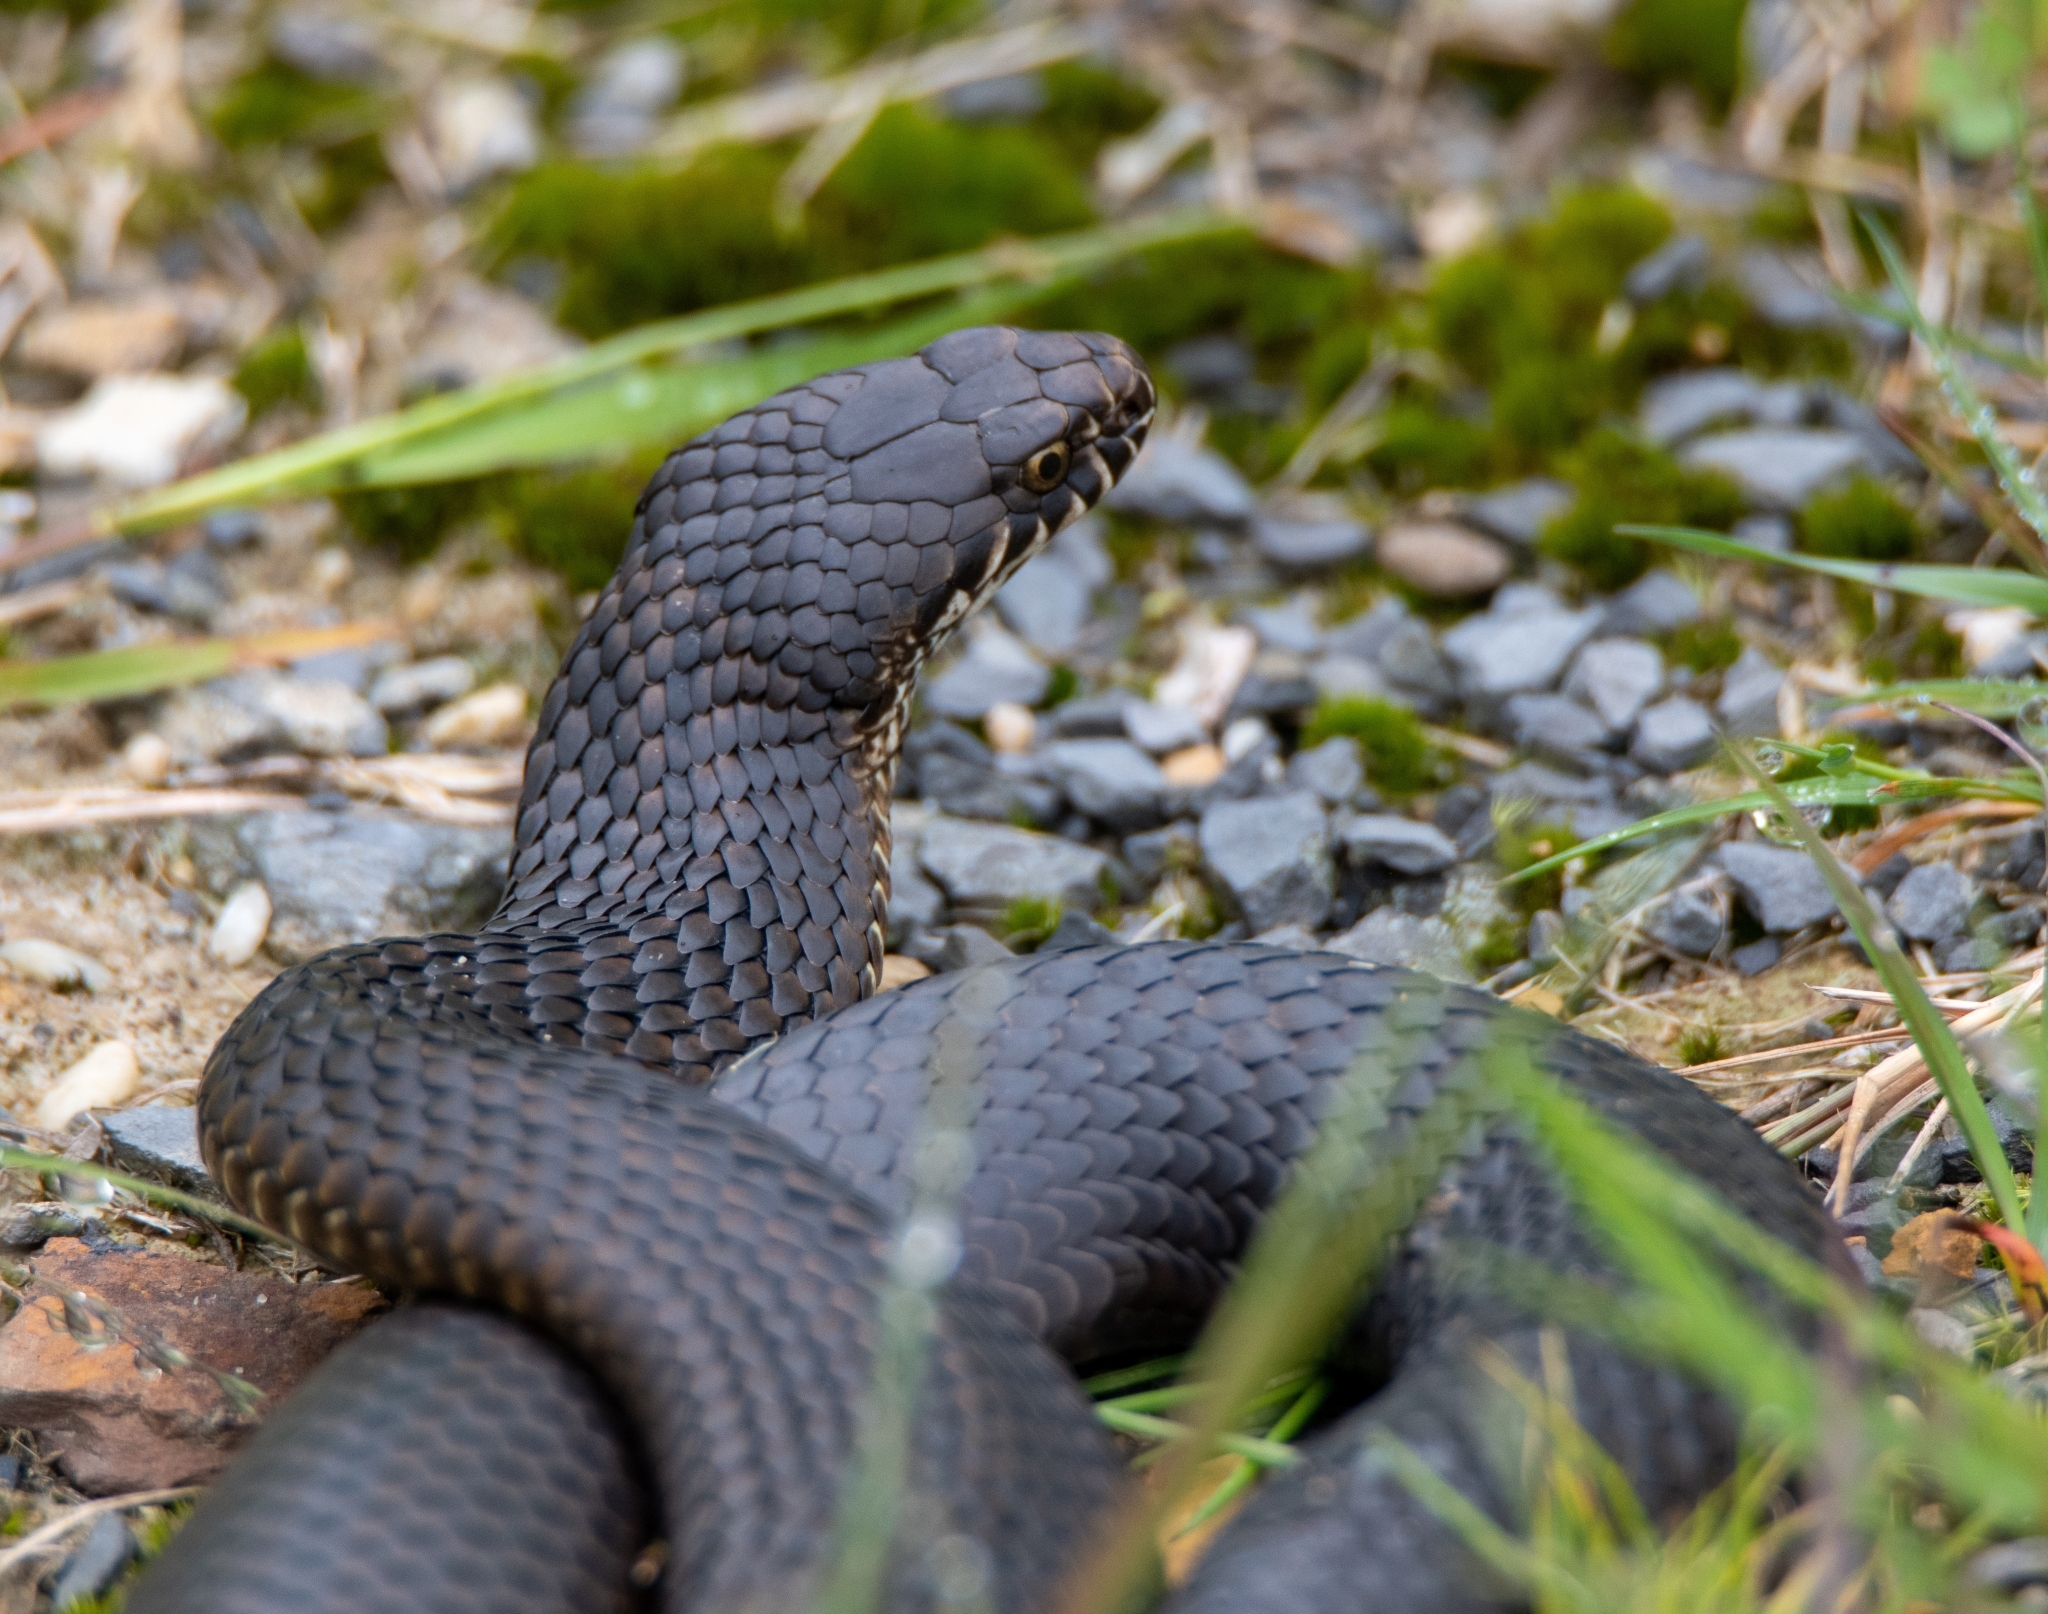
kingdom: Animalia
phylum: Chordata
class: Squamata
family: Elapidae
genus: Austrelaps
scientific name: Austrelaps ramsayi
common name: Highlands copperhead
